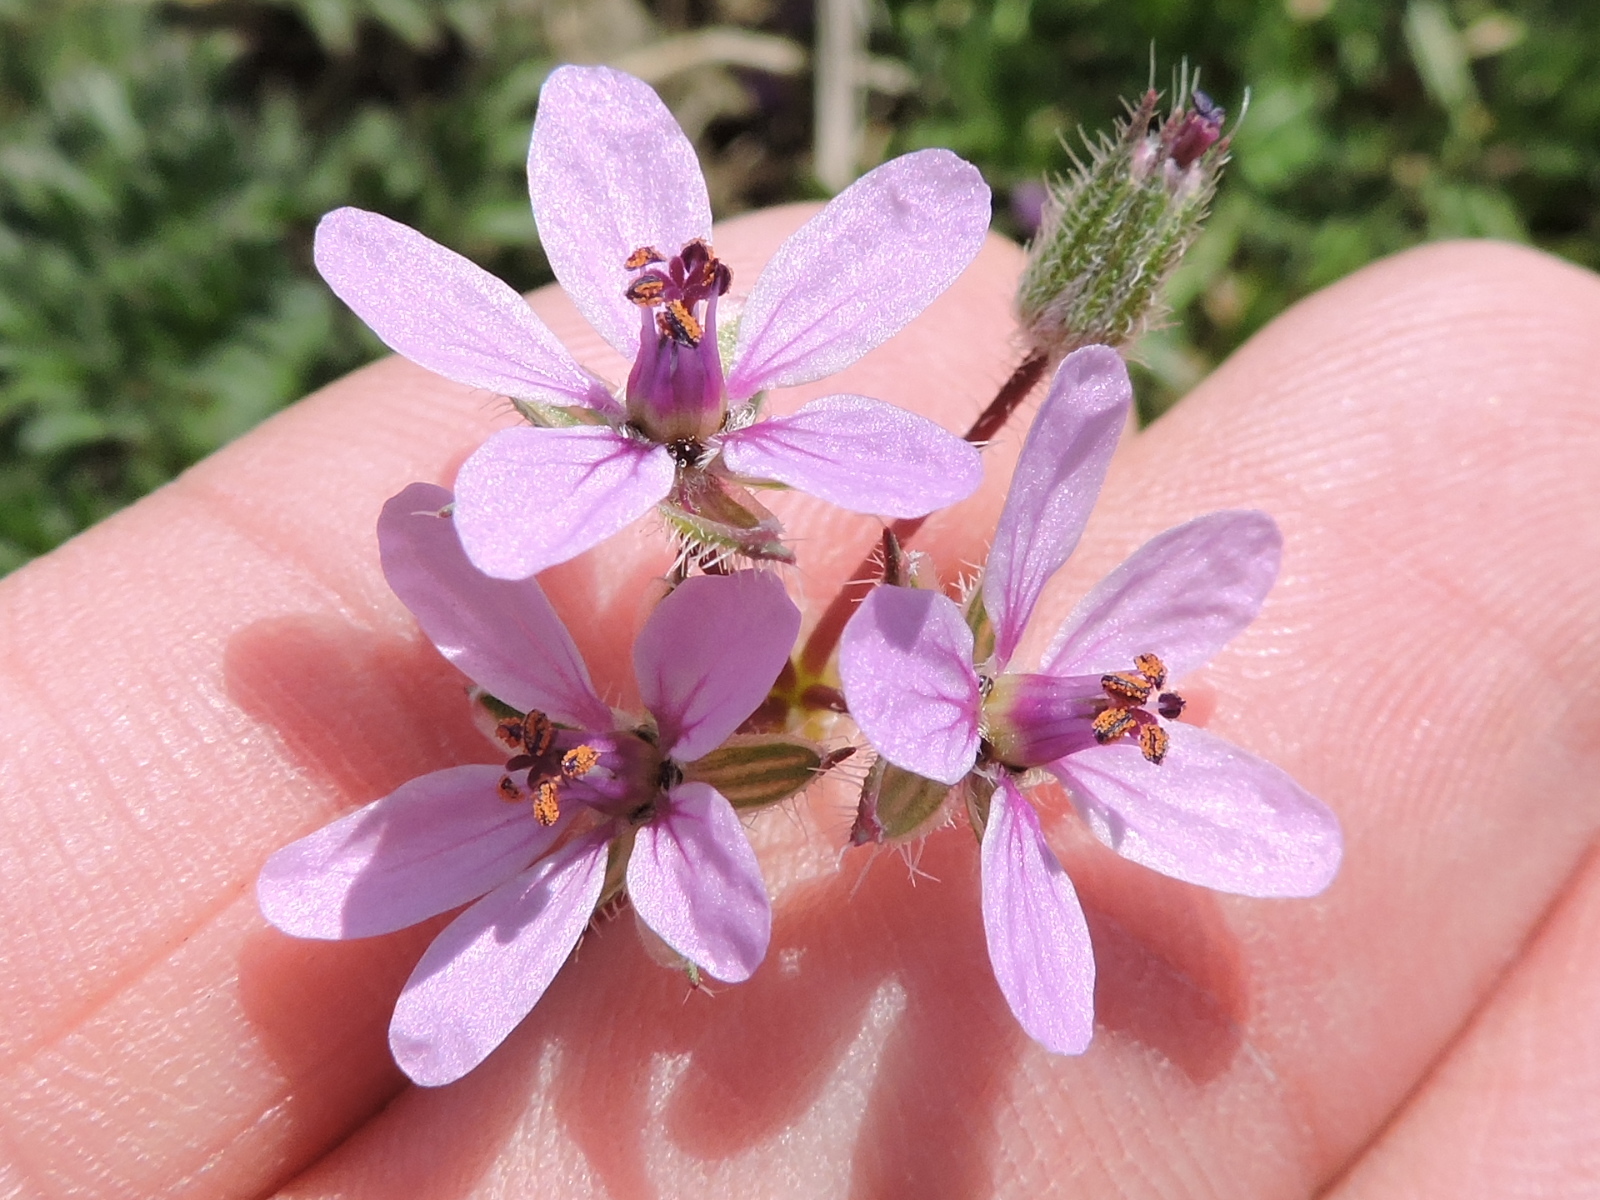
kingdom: Plantae
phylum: Tracheophyta
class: Magnoliopsida
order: Geraniales
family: Geraniaceae
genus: Erodium
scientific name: Erodium cicutarium
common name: Common stork's-bill
